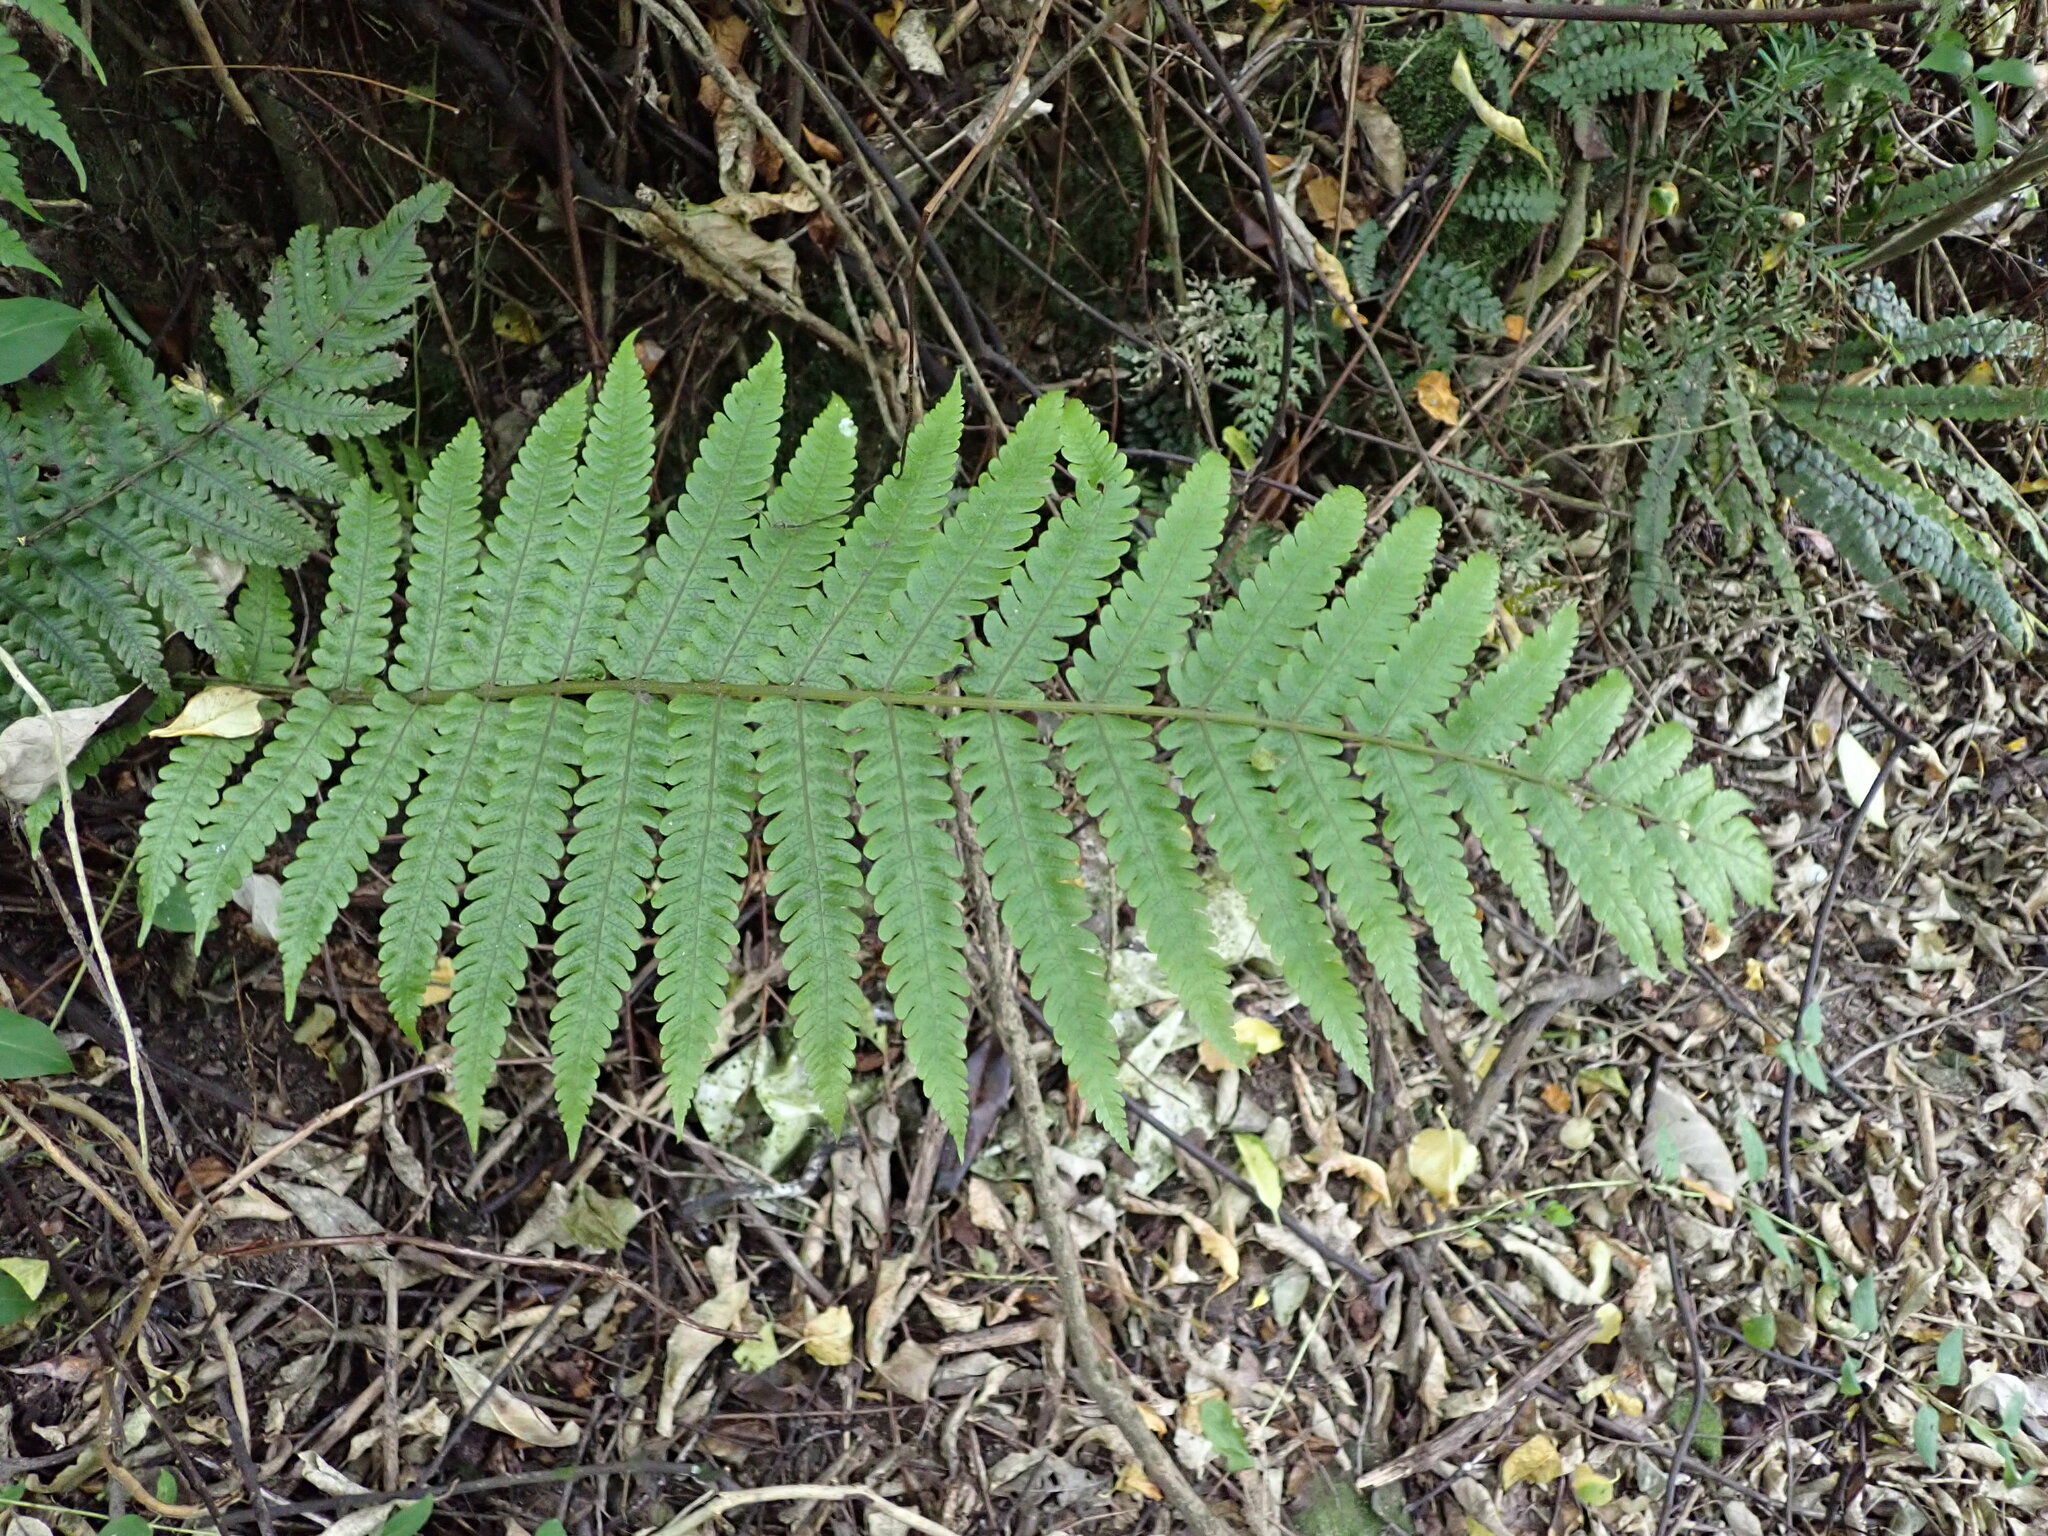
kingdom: Plantae
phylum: Tracheophyta
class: Polypodiopsida
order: Polypodiales
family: Thelypteridaceae
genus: Pakau
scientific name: Pakau pennigera
